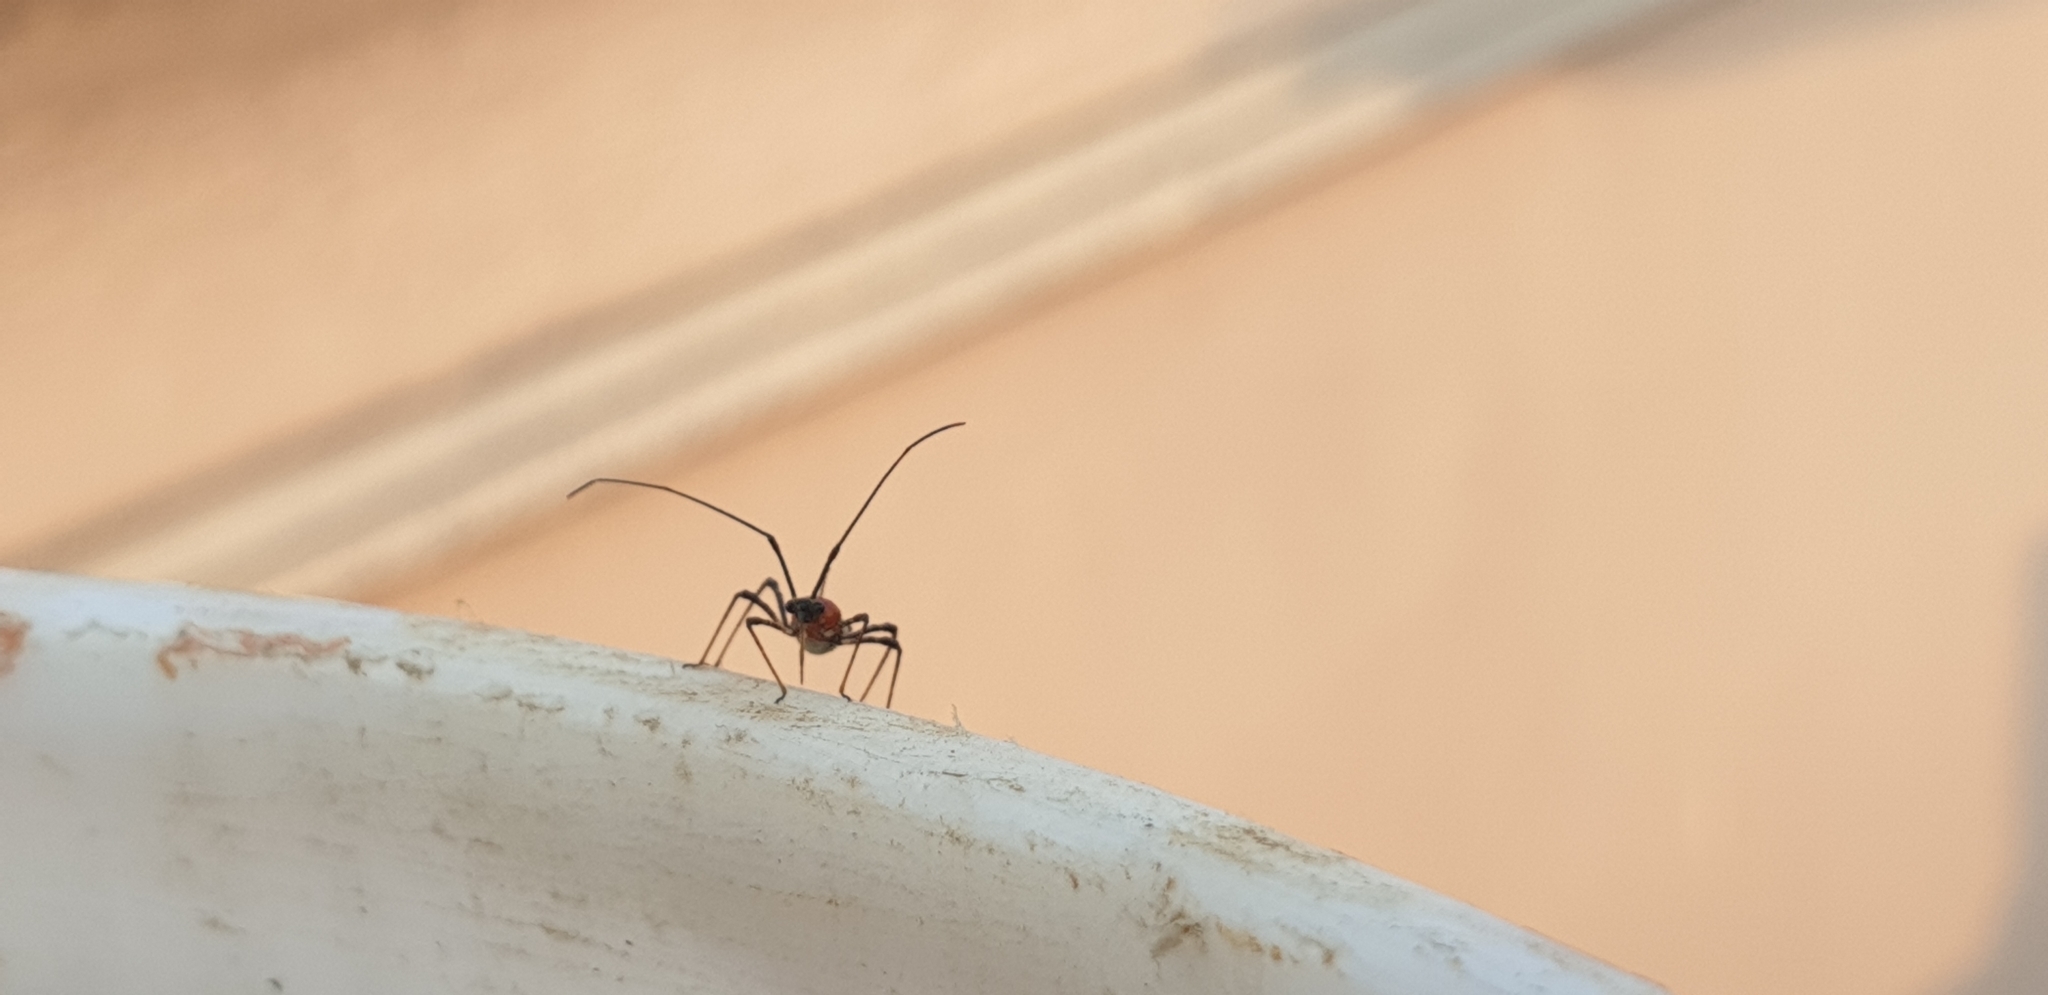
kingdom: Animalia
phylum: Arthropoda
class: Insecta
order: Hemiptera
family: Miridae
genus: Helopeltis
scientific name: Helopeltis antonii
